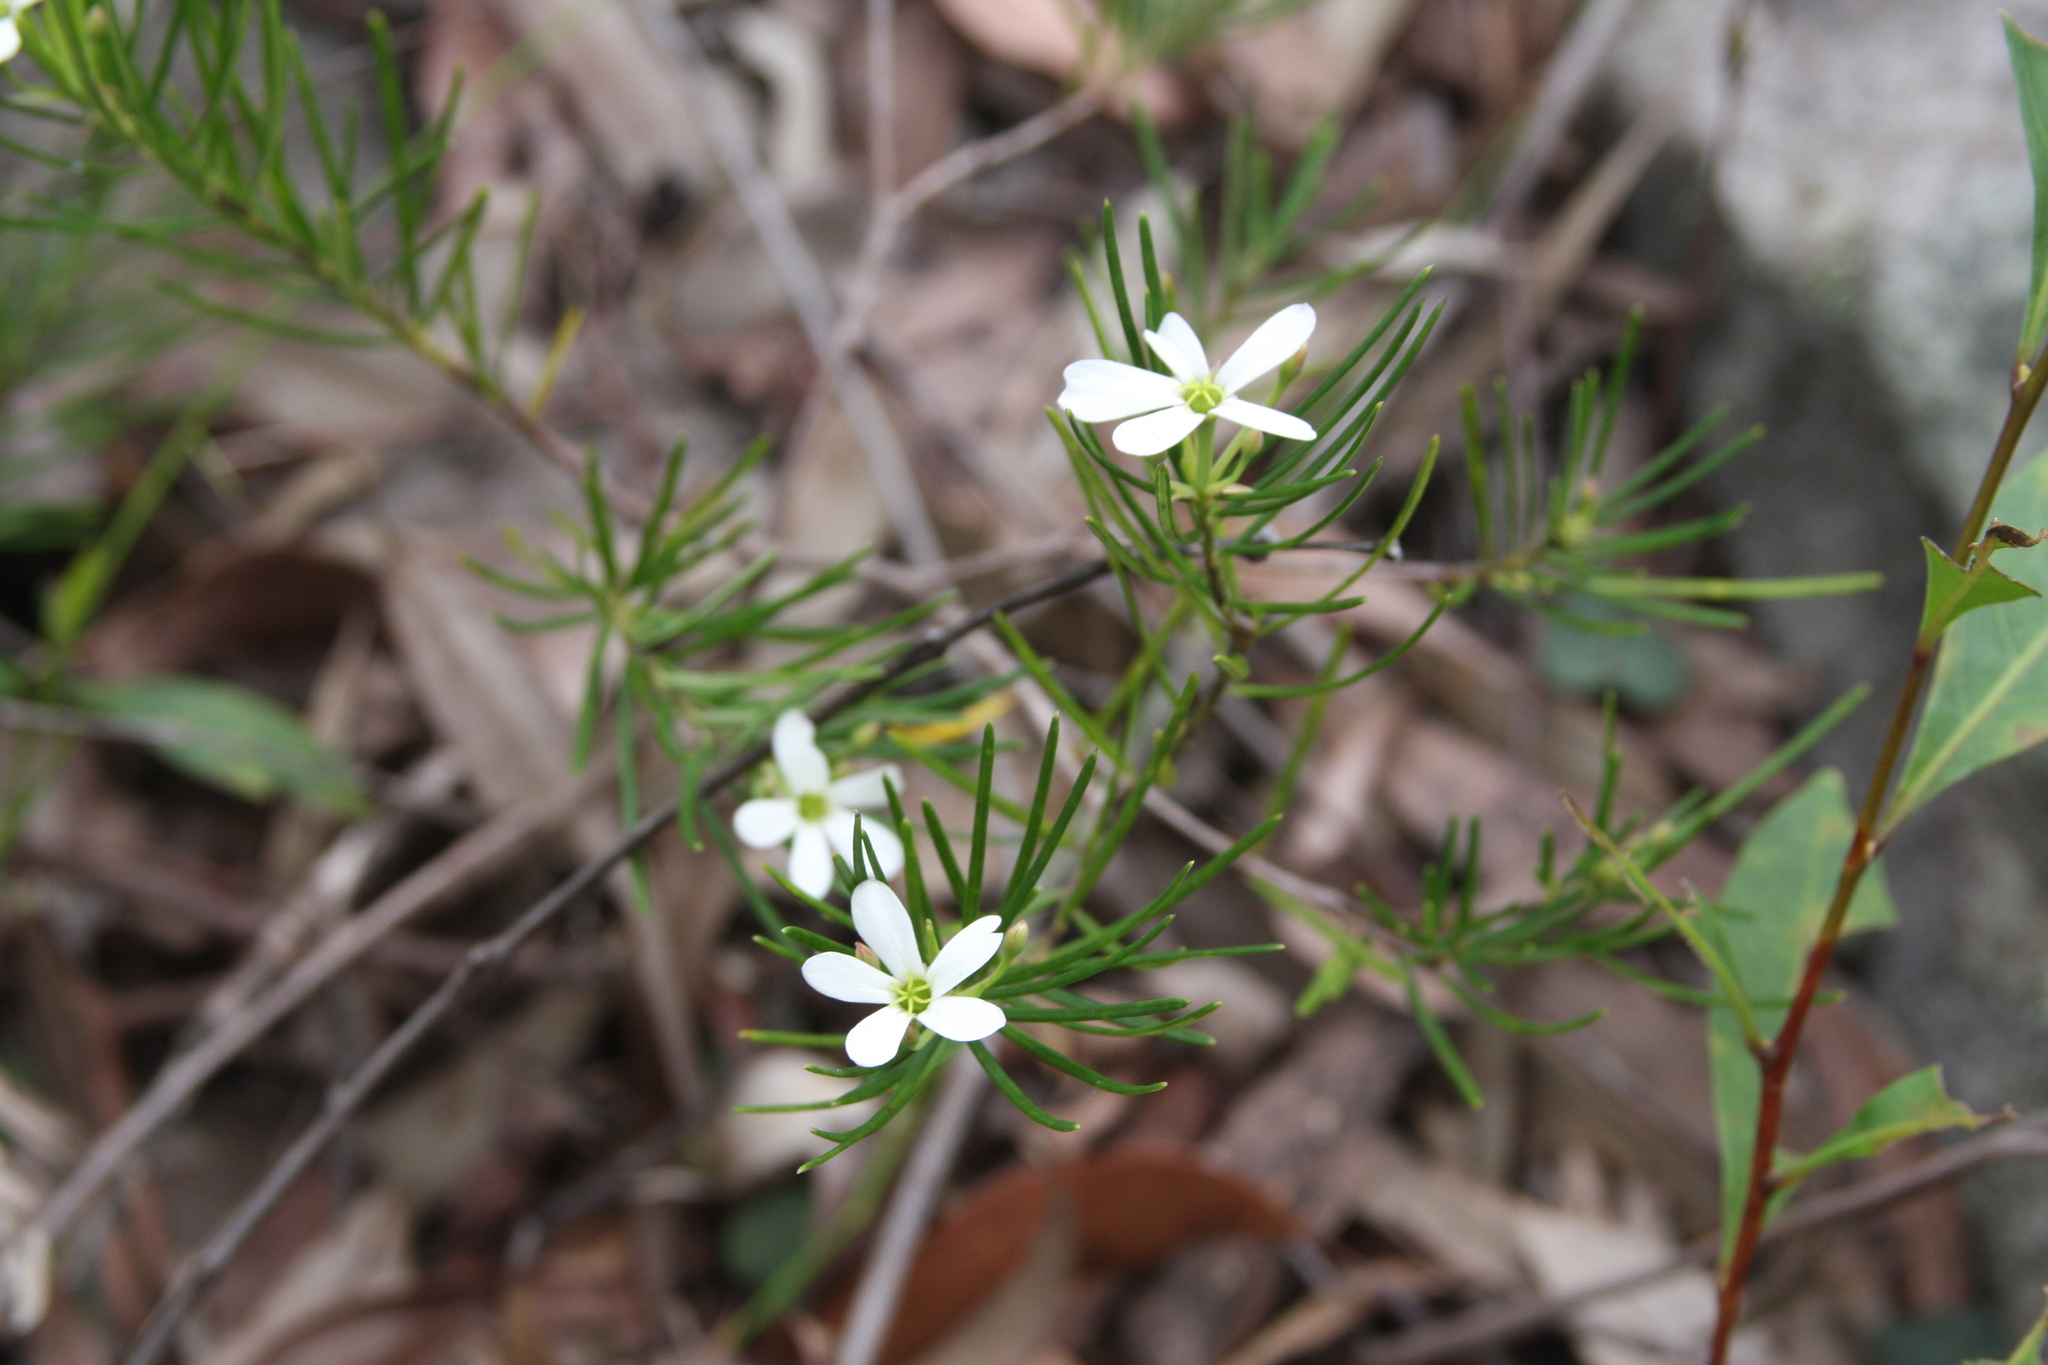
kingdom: Plantae
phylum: Tracheophyta
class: Magnoliopsida
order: Malpighiales
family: Euphorbiaceae
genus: Ricinocarpos
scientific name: Ricinocarpos pinifolius
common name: Weddingbush
